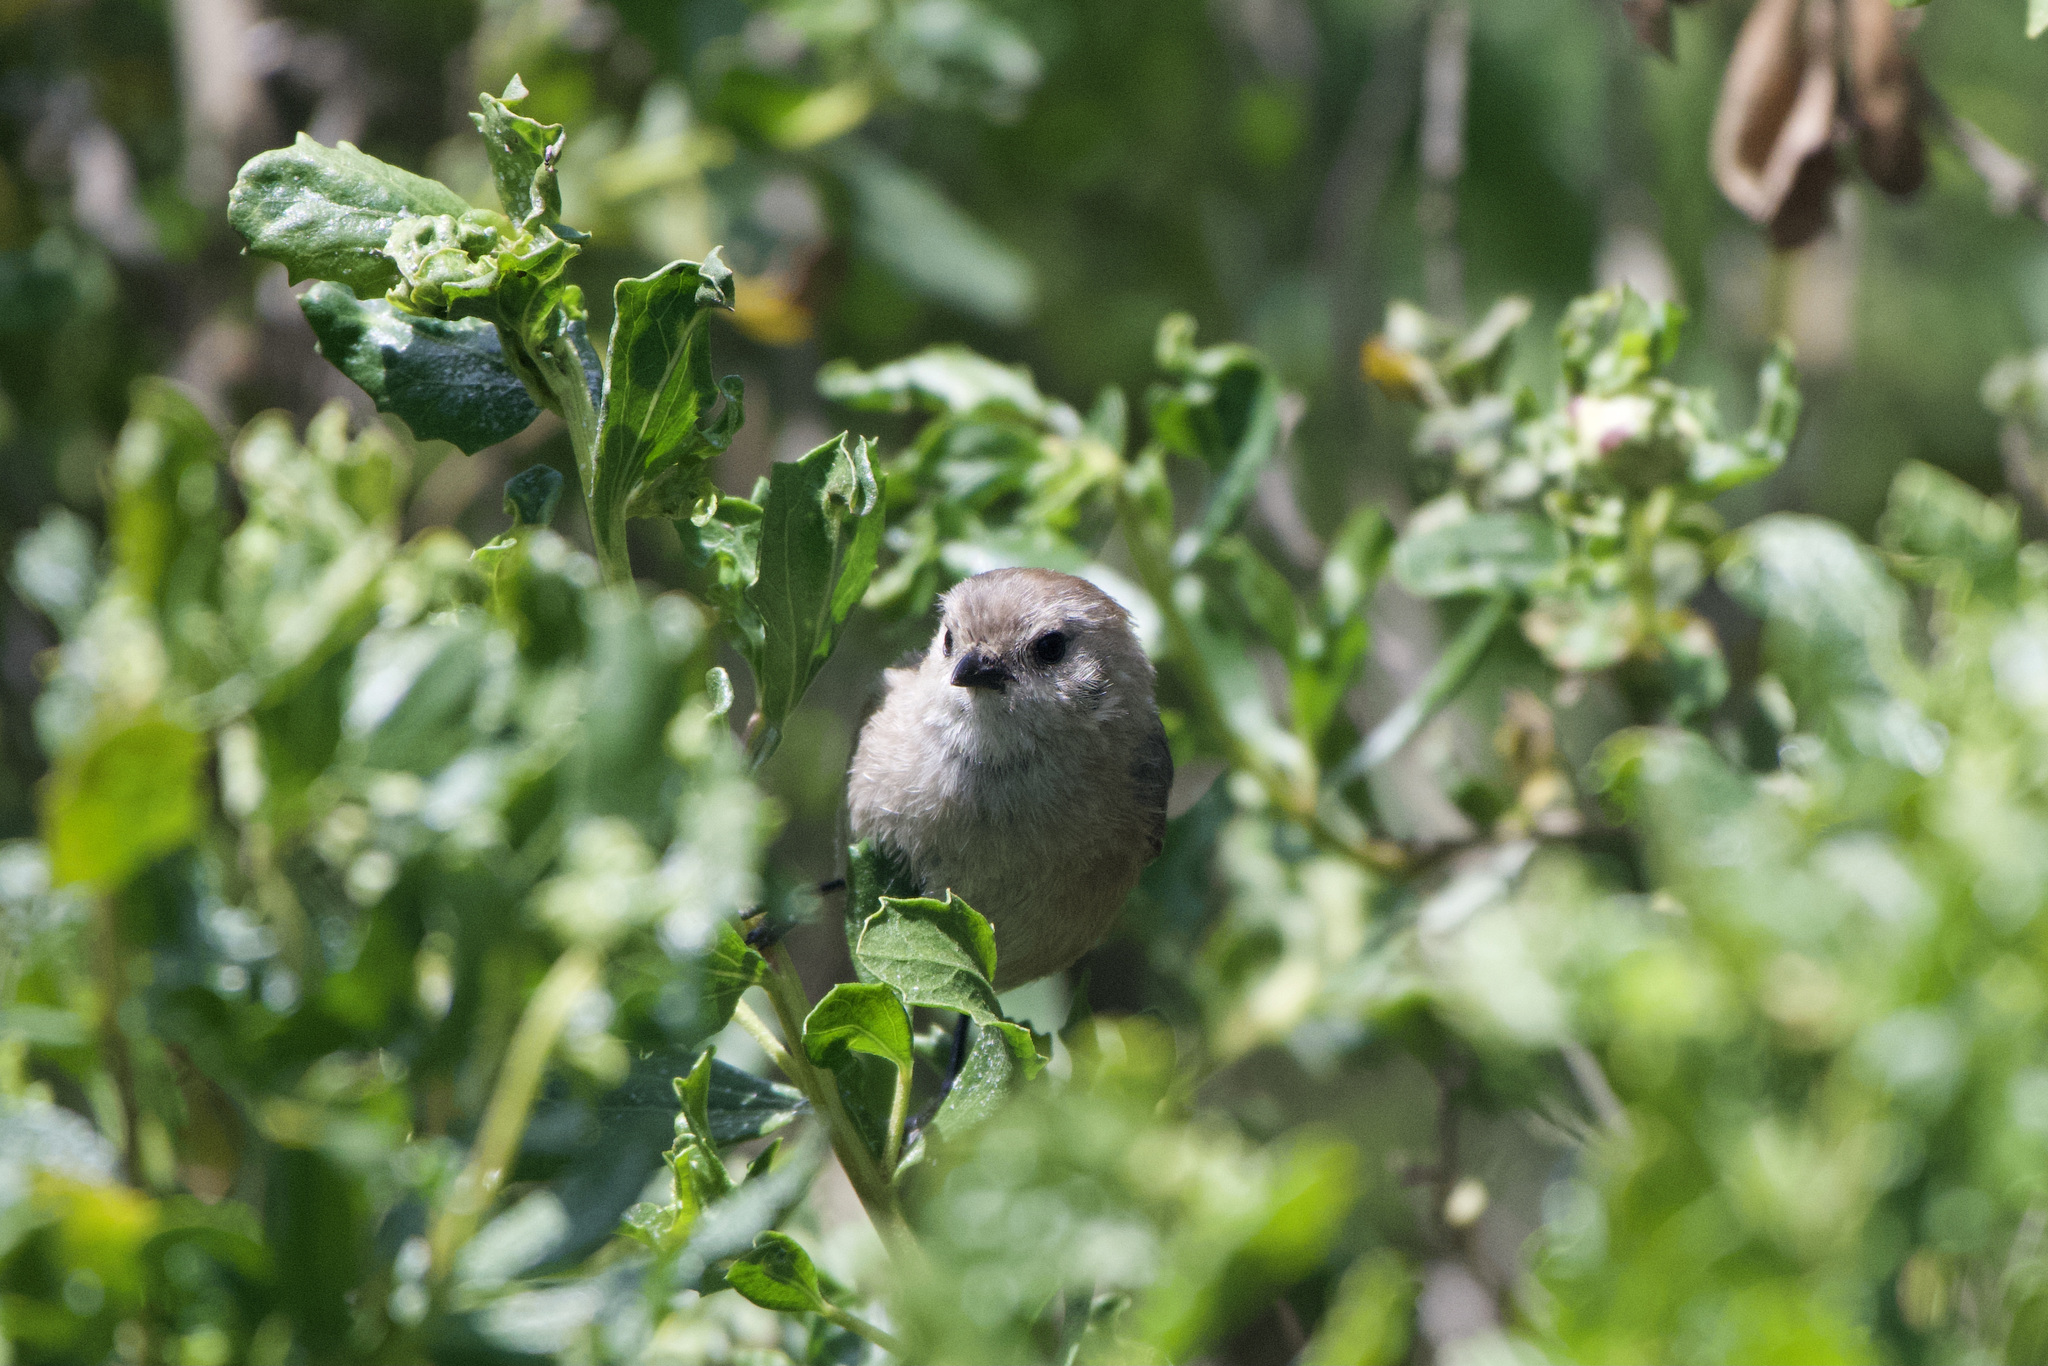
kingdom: Animalia
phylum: Chordata
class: Aves
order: Passeriformes
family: Aegithalidae
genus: Psaltriparus
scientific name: Psaltriparus minimus
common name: American bushtit
